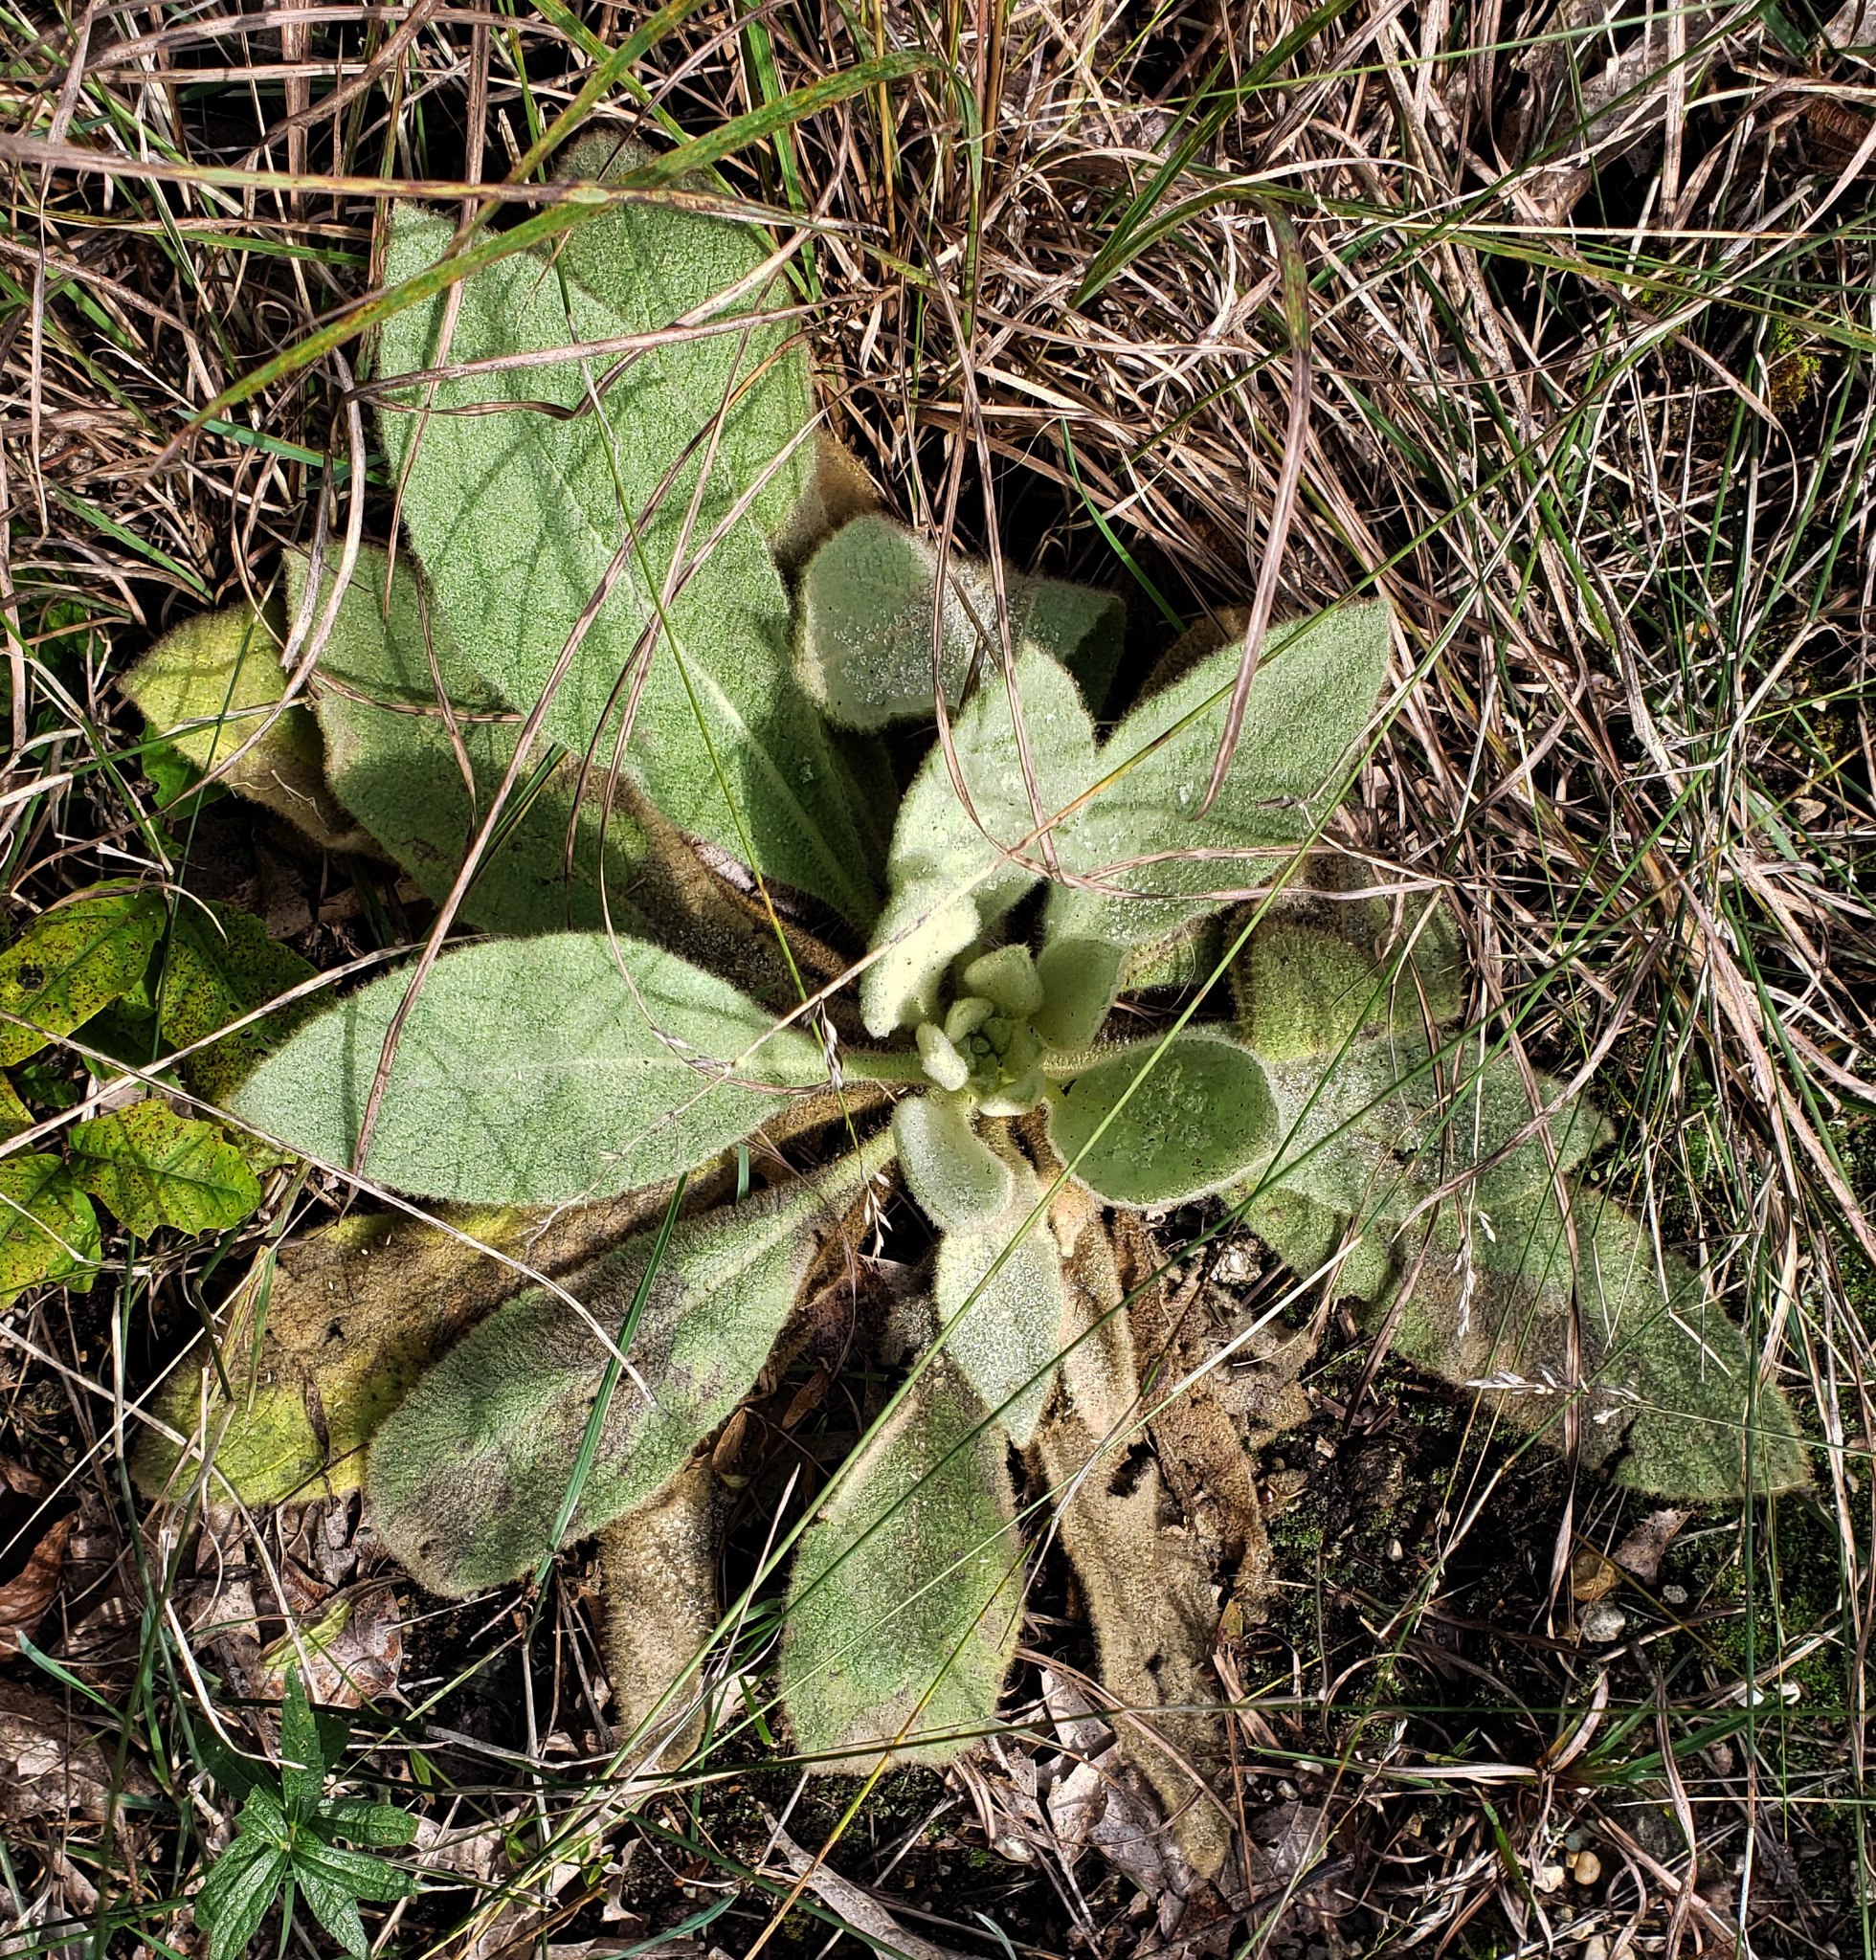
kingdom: Plantae
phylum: Tracheophyta
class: Magnoliopsida
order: Lamiales
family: Scrophulariaceae
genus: Verbascum
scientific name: Verbascum thapsus
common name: Common mullein
